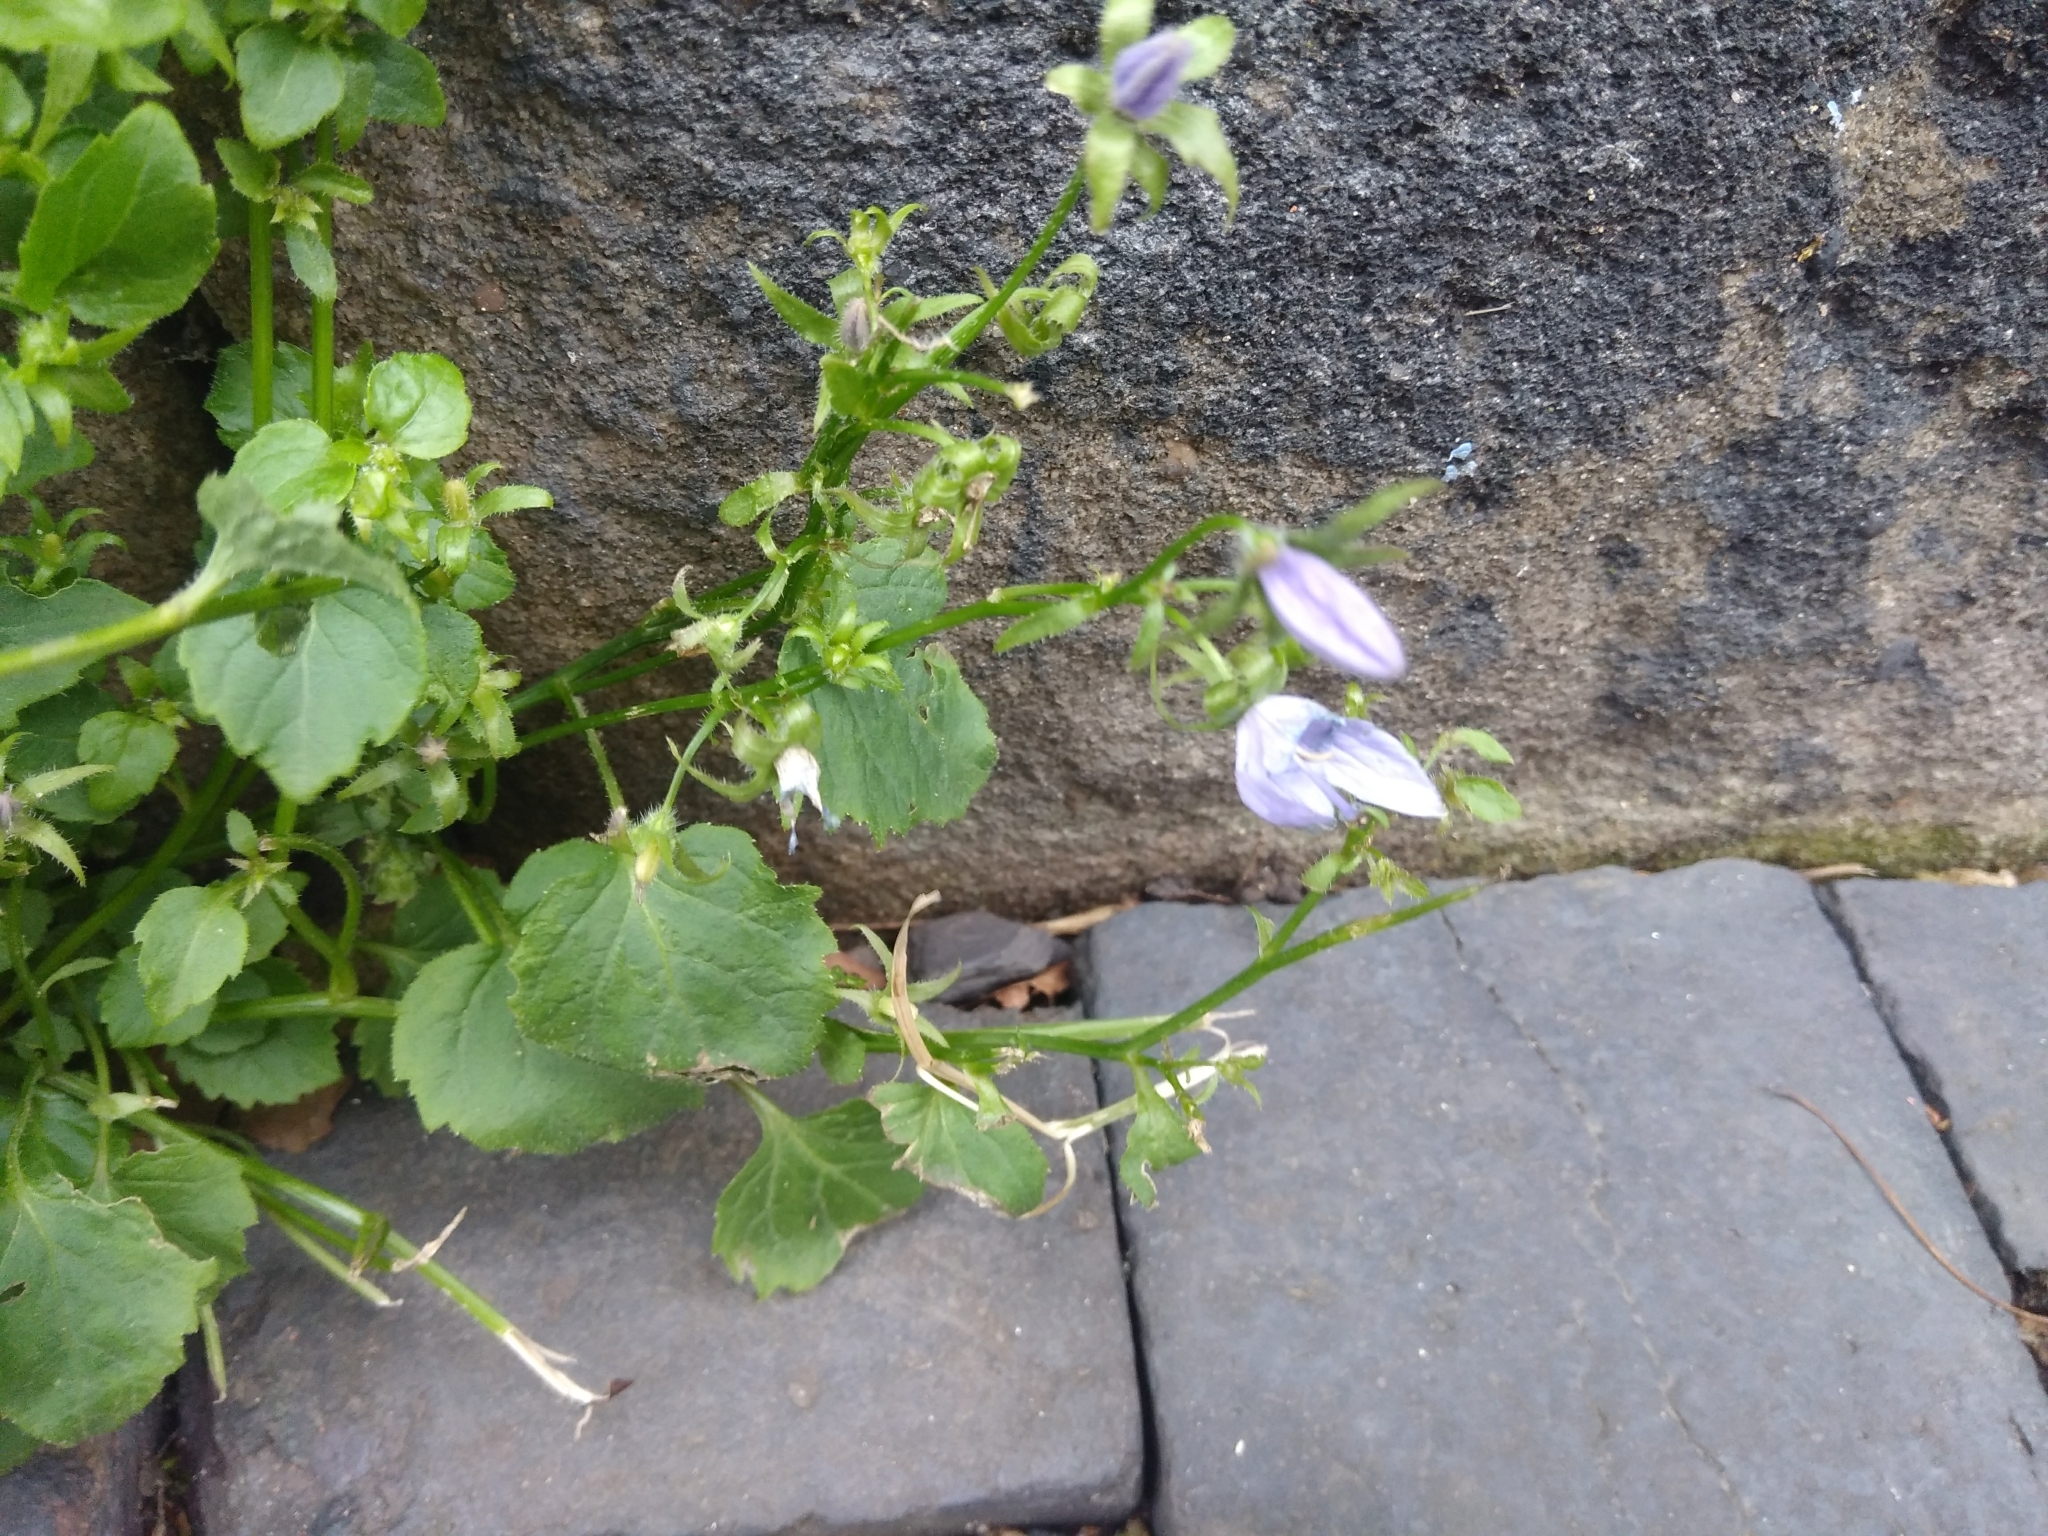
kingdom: Plantae
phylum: Tracheophyta
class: Magnoliopsida
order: Asterales
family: Campanulaceae
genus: Campanula
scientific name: Campanula poscharskyana
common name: Trailing bellflower
